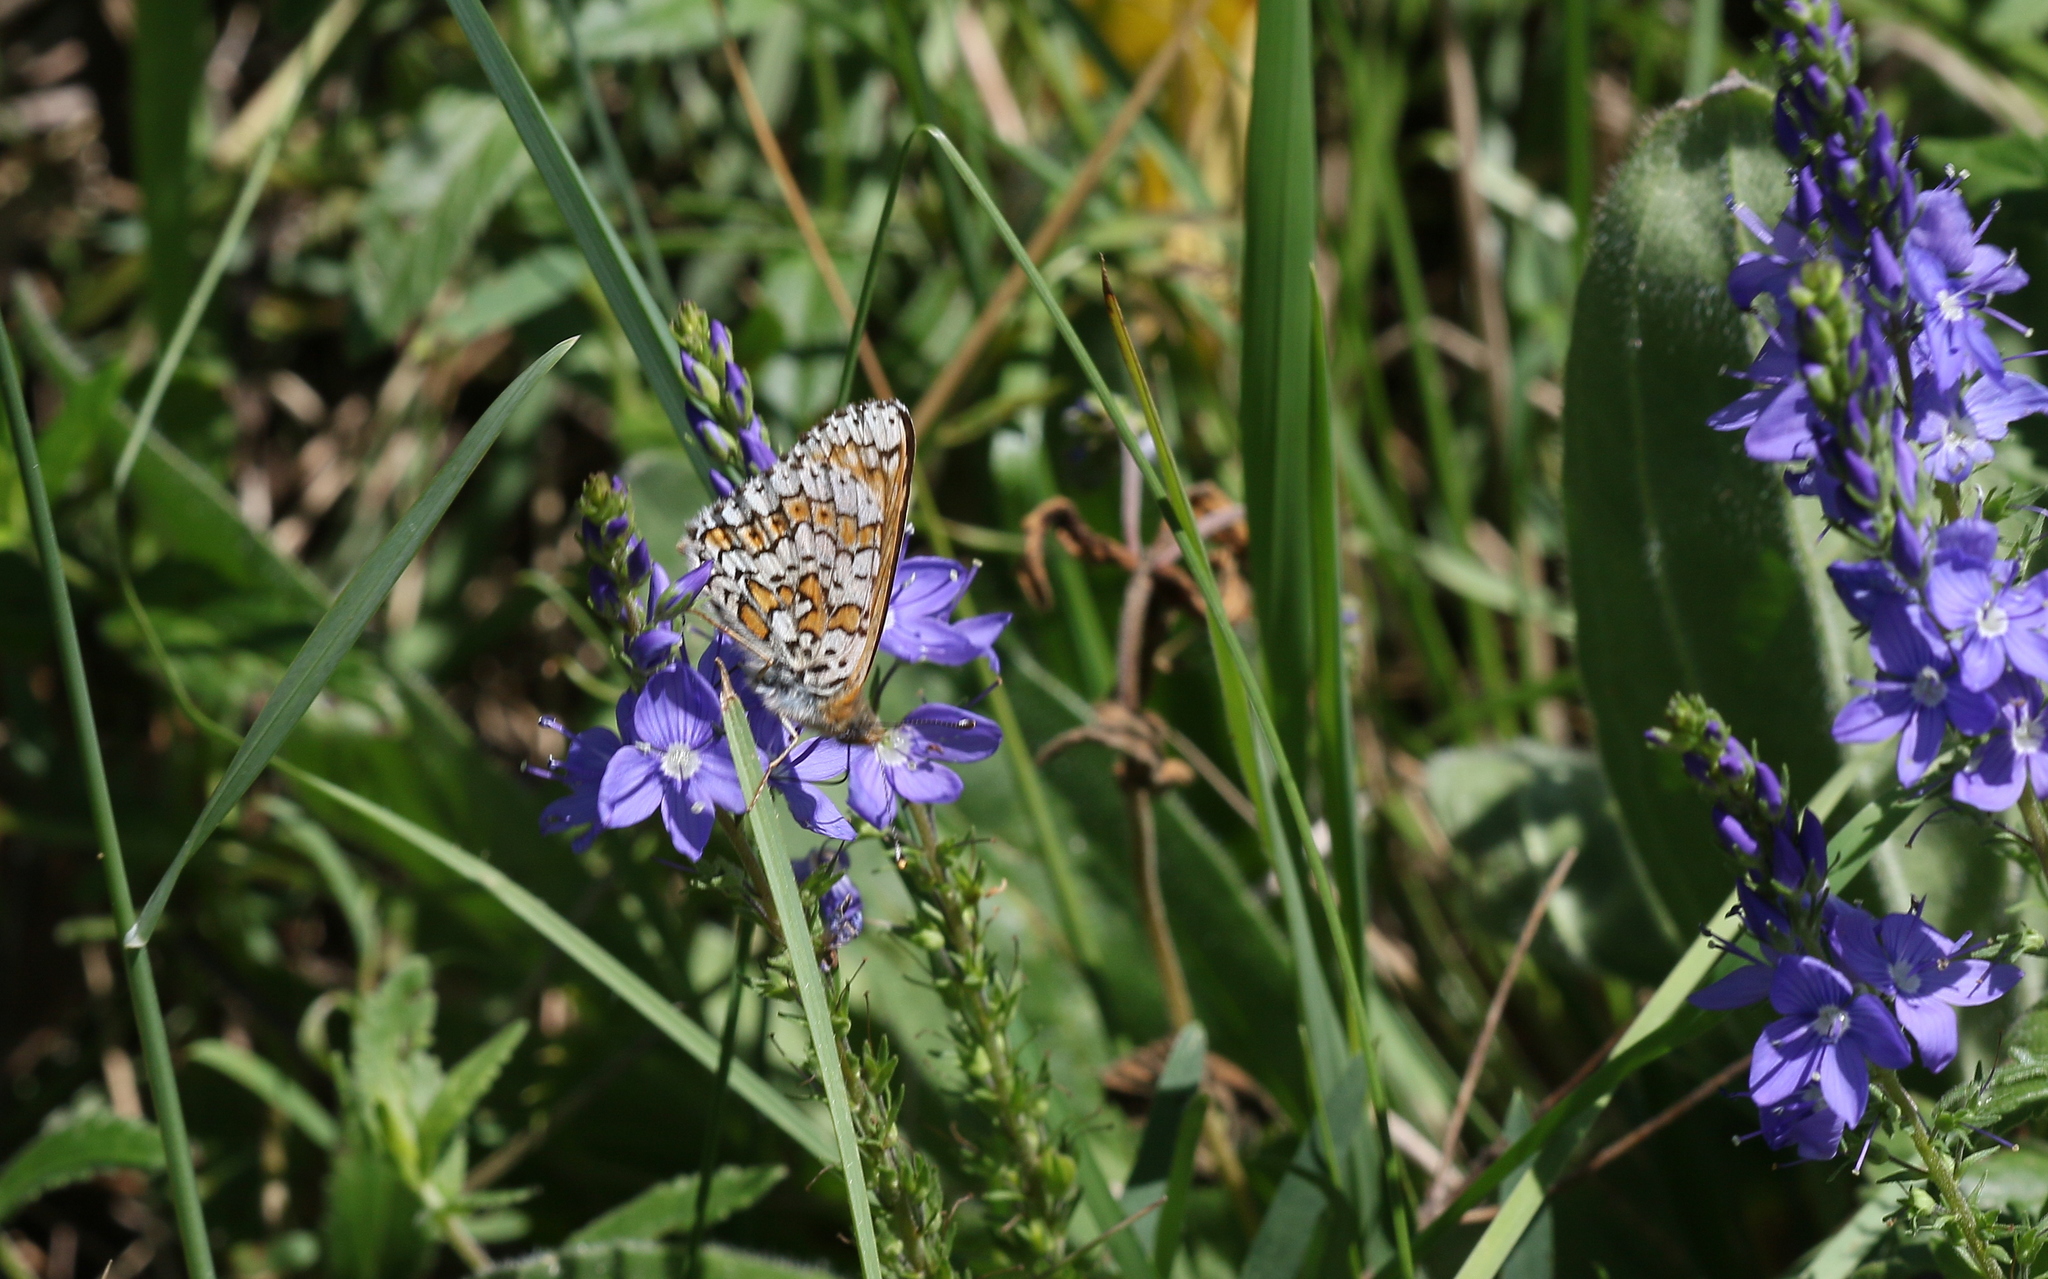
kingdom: Animalia
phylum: Arthropoda
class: Insecta
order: Lepidoptera
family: Nymphalidae
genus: Melitaea
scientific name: Melitaea cinxia
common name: Glanville fritillary
